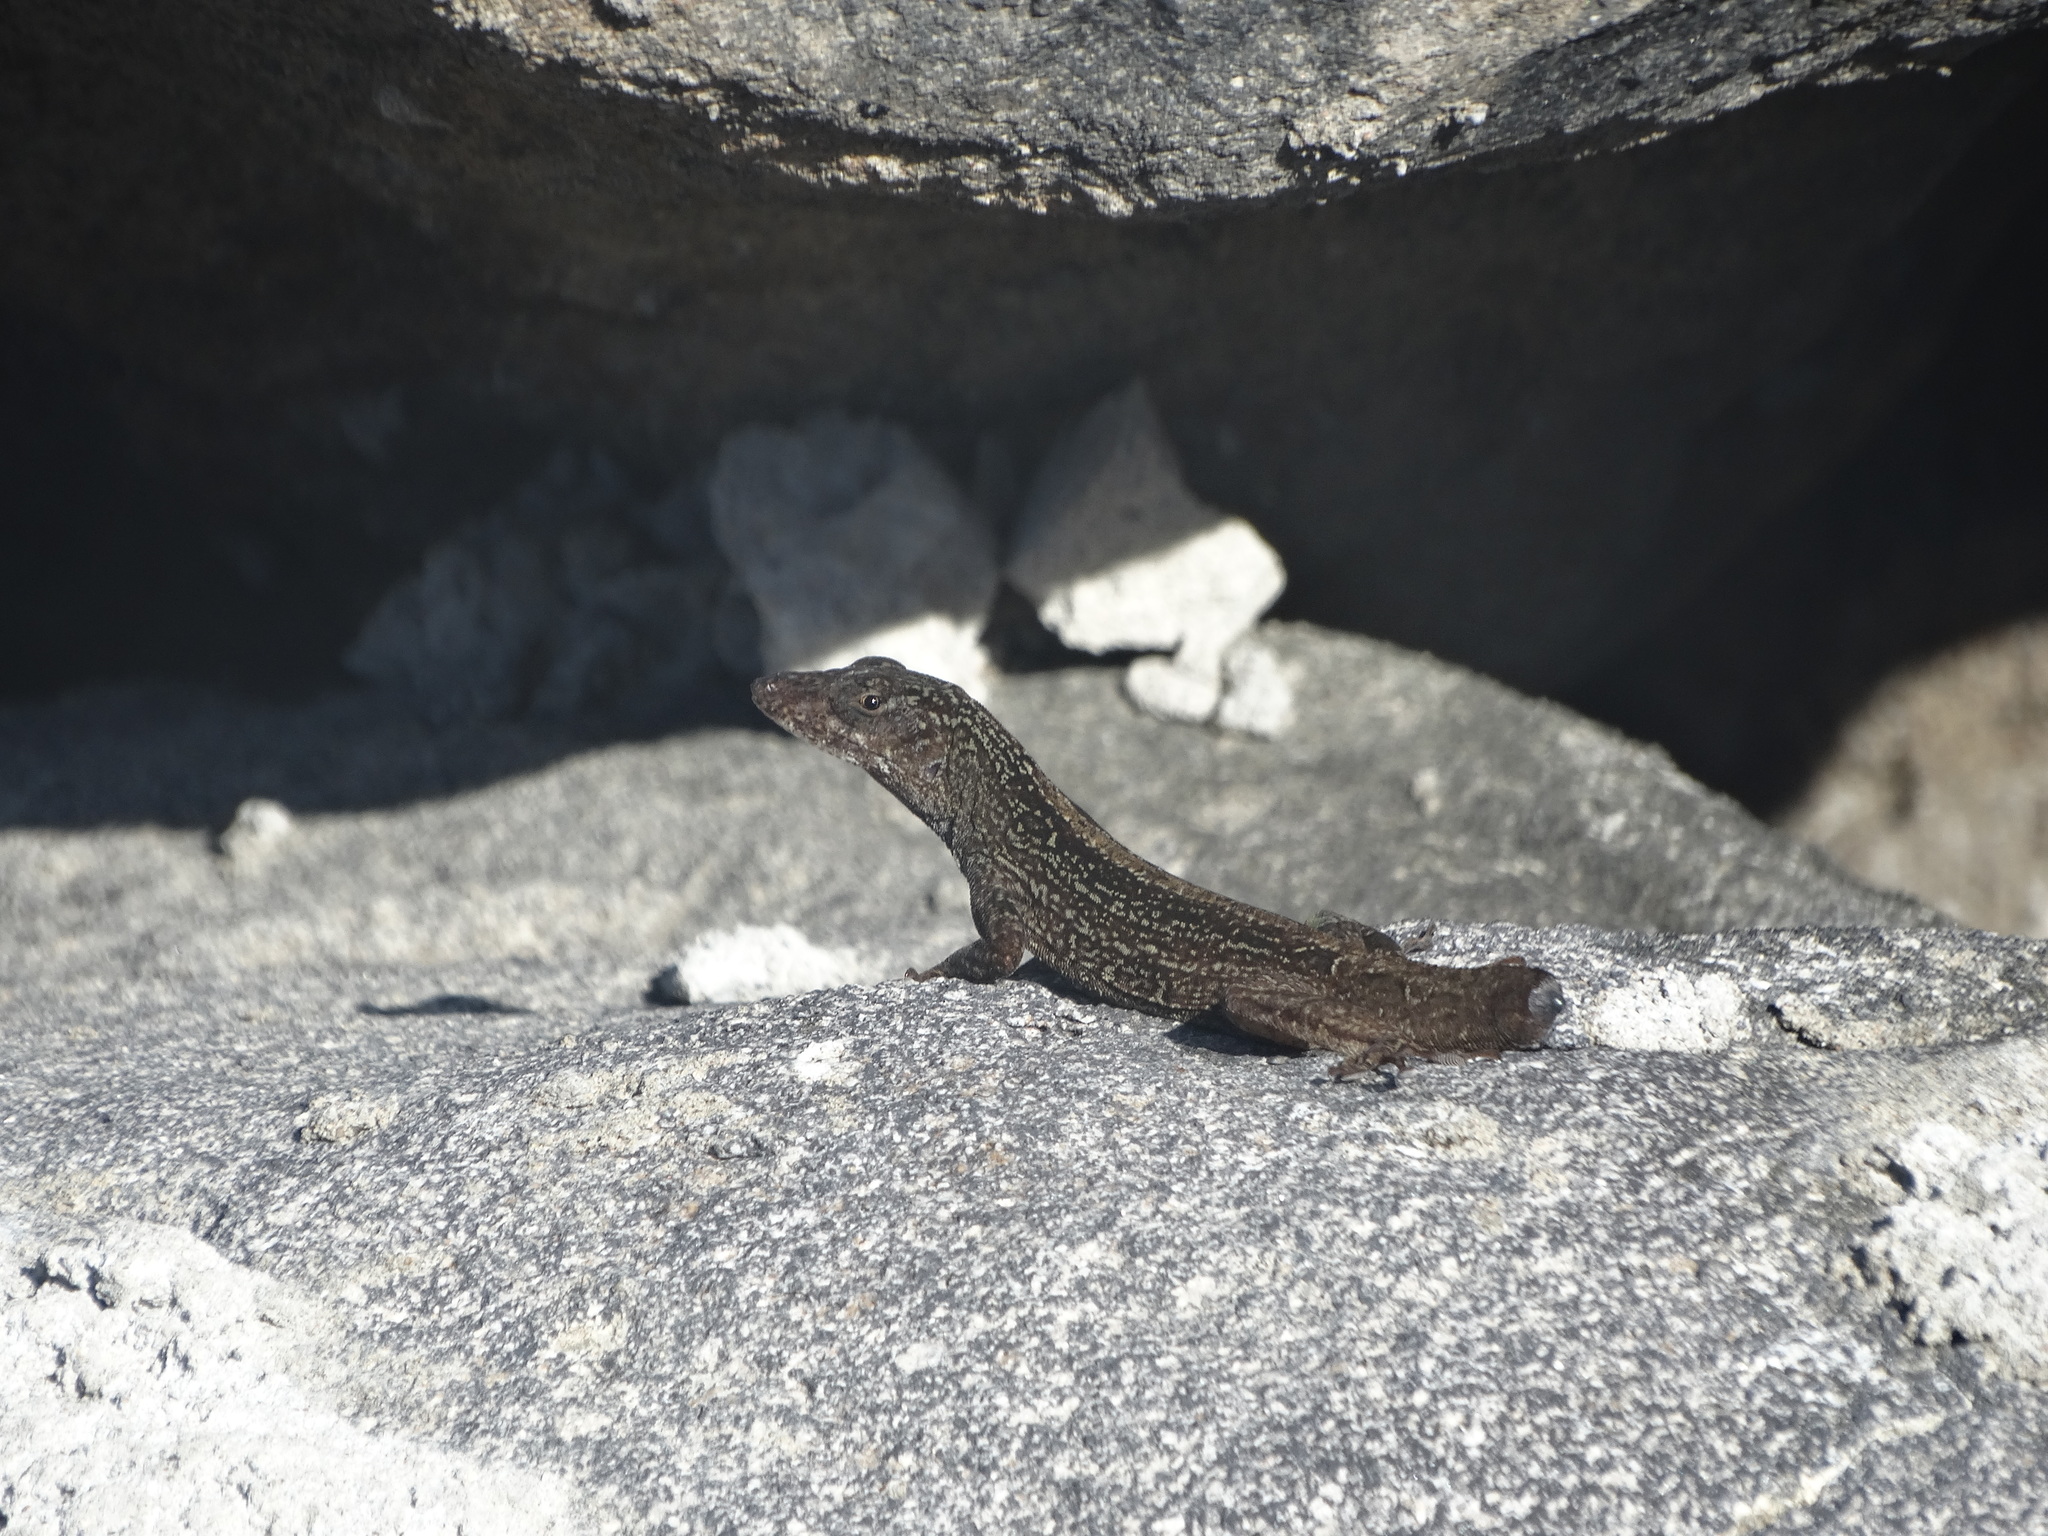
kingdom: Animalia
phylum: Chordata
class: Squamata
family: Dactyloidae
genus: Anolis
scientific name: Anolis sagrei
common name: Brown anole
